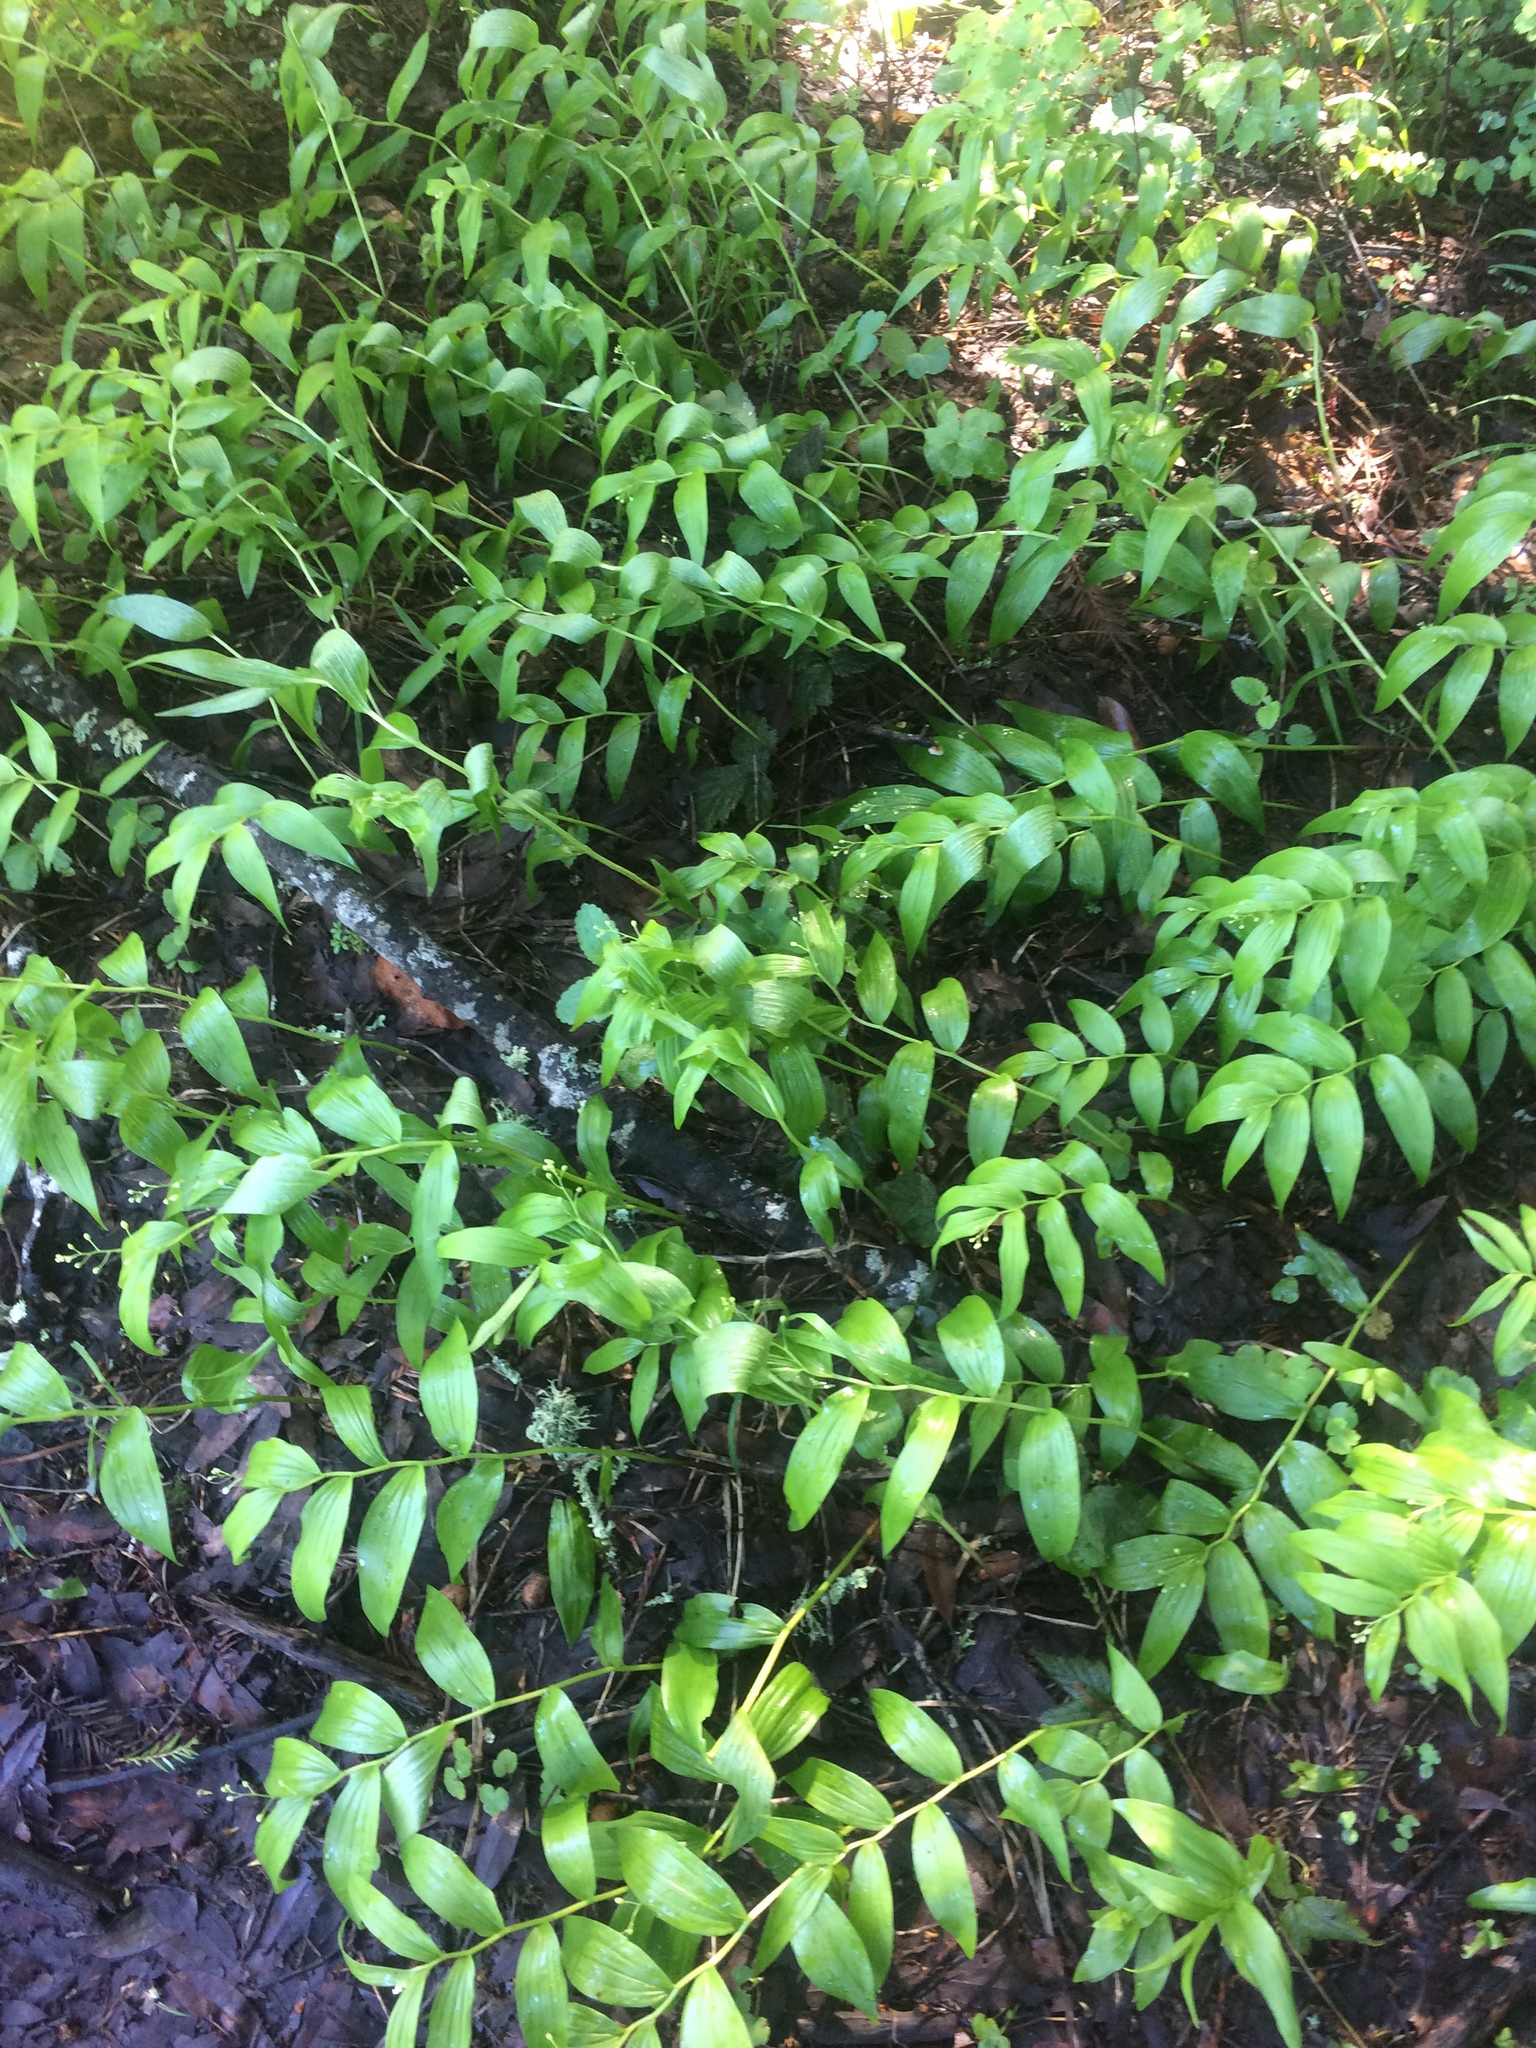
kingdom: Plantae
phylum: Tracheophyta
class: Liliopsida
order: Asparagales
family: Asparagaceae
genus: Maianthemum
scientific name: Maianthemum stellatum
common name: Little false solomon's seal
